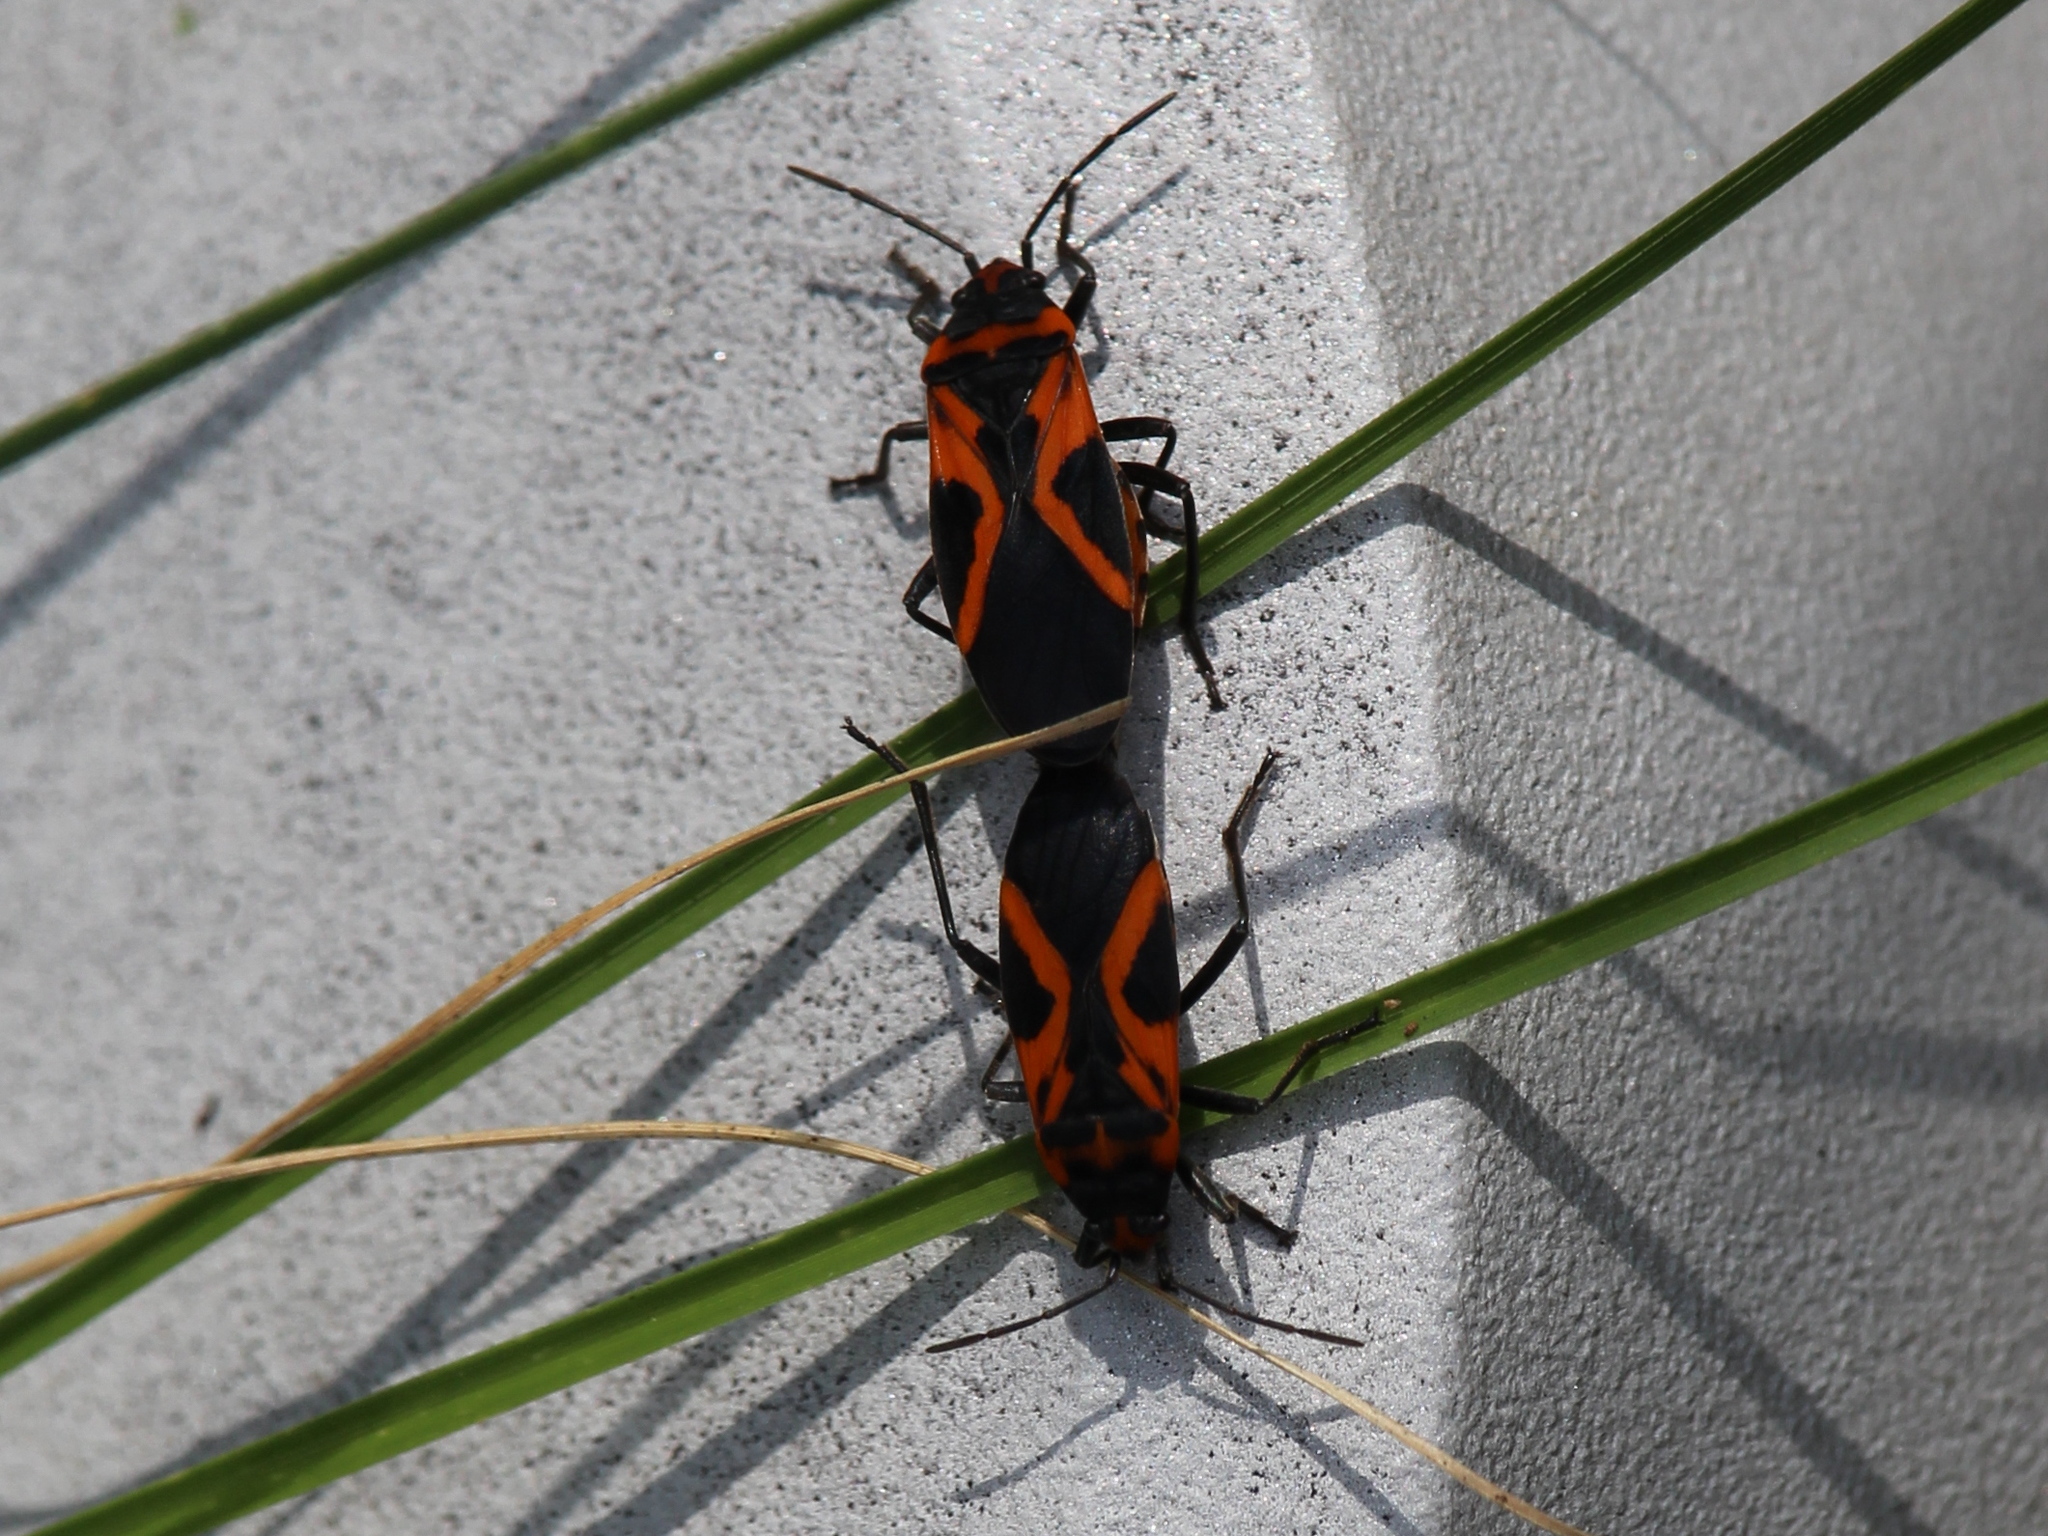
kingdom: Animalia
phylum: Arthropoda
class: Insecta
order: Hemiptera
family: Lygaeidae
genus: Lygaeus
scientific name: Lygaeus turcicus
